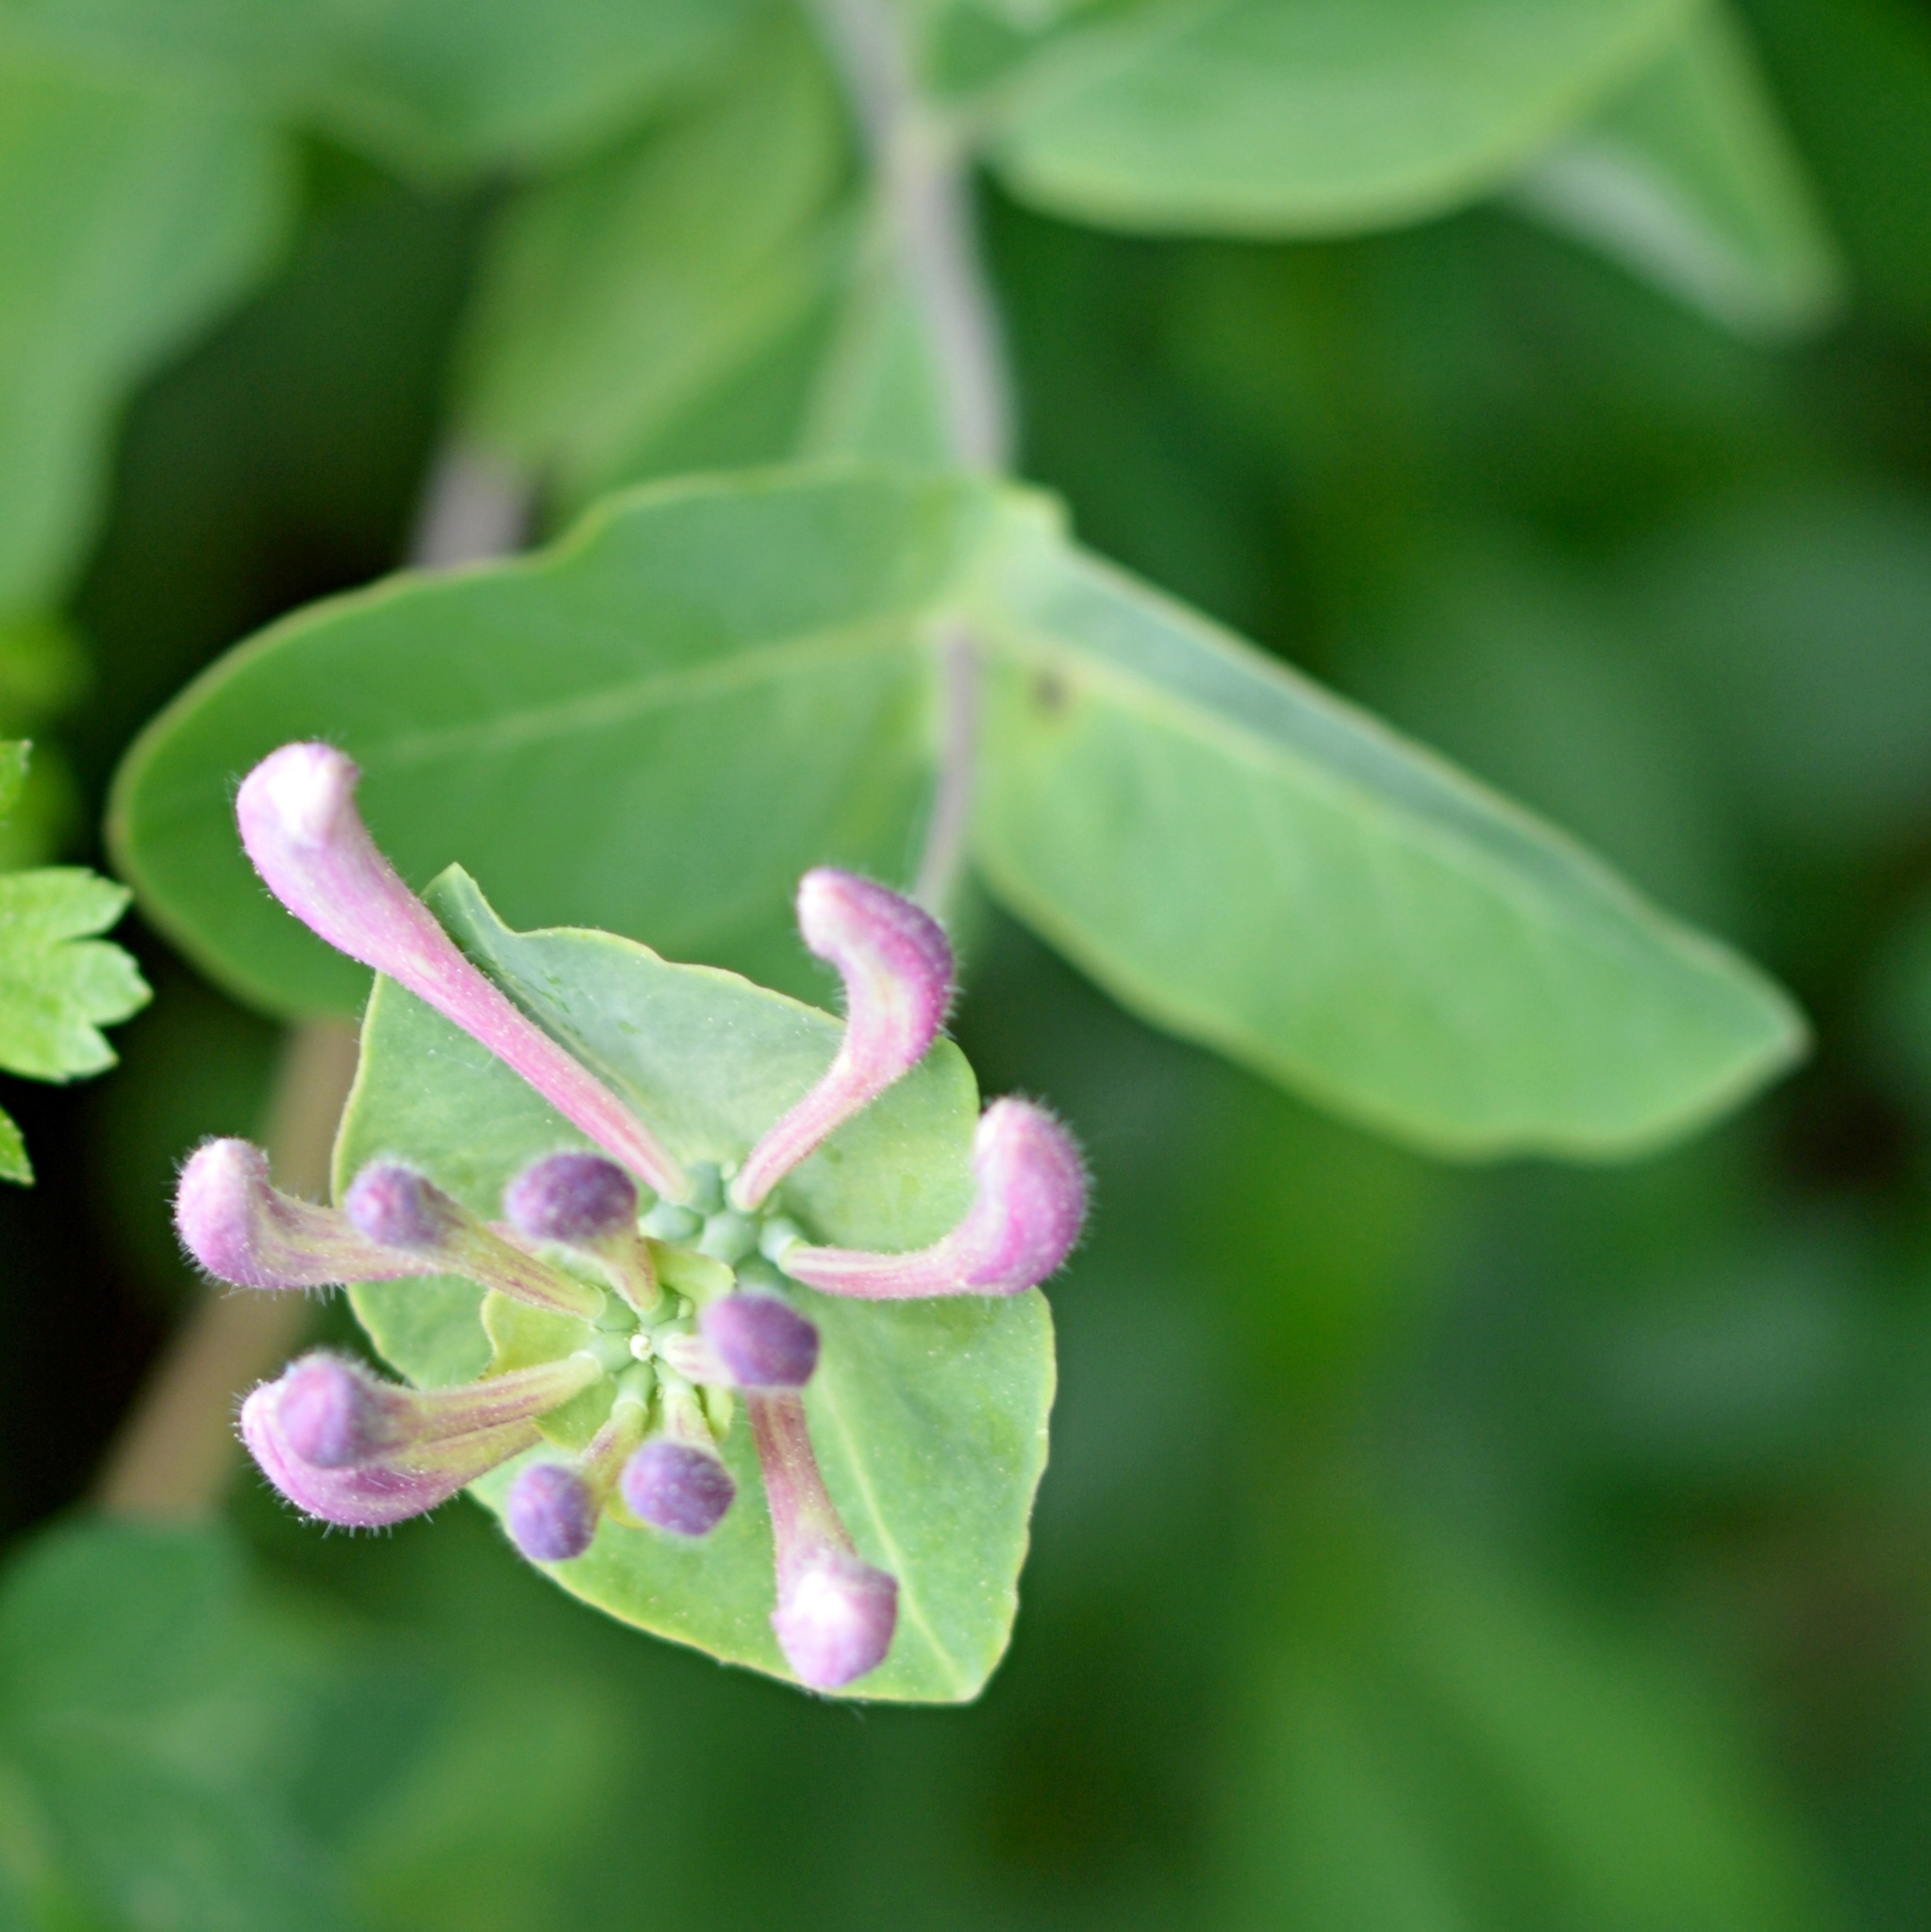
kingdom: Plantae
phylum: Tracheophyta
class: Magnoliopsida
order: Dipsacales
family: Caprifoliaceae
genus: Lonicera
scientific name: Lonicera caprifolium
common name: Perfoliate honeysuckle
